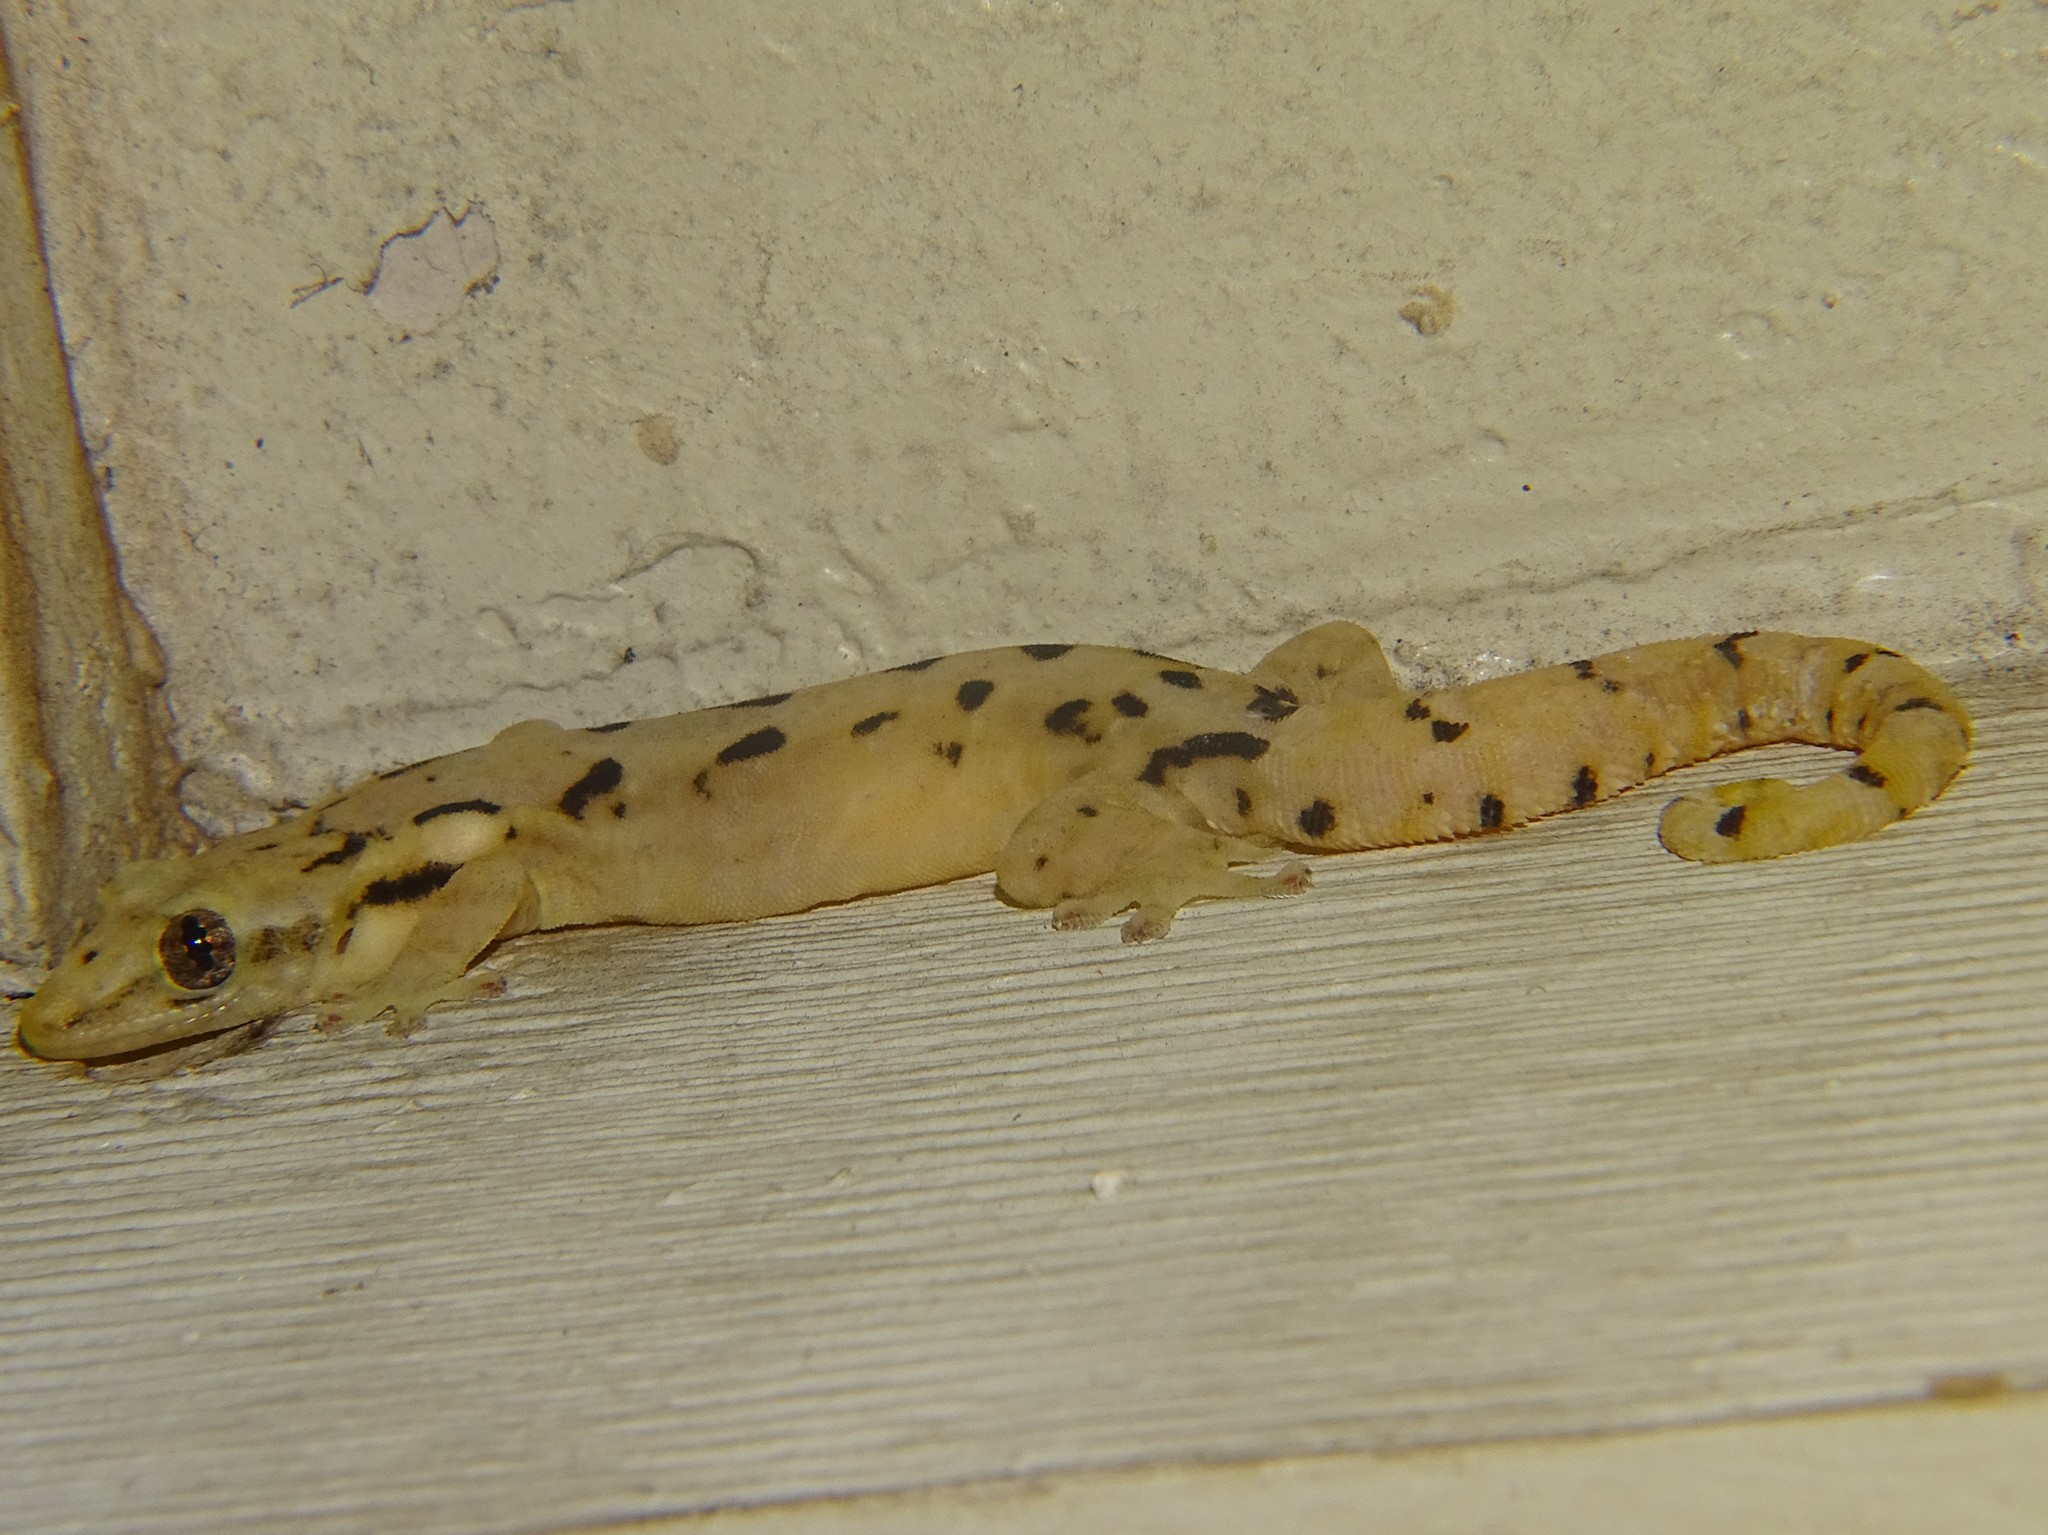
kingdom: Animalia
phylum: Chordata
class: Squamata
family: Gekkonidae
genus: Lepidodactylus
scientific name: Lepidodactylus lugubris
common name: Mourning gecko
